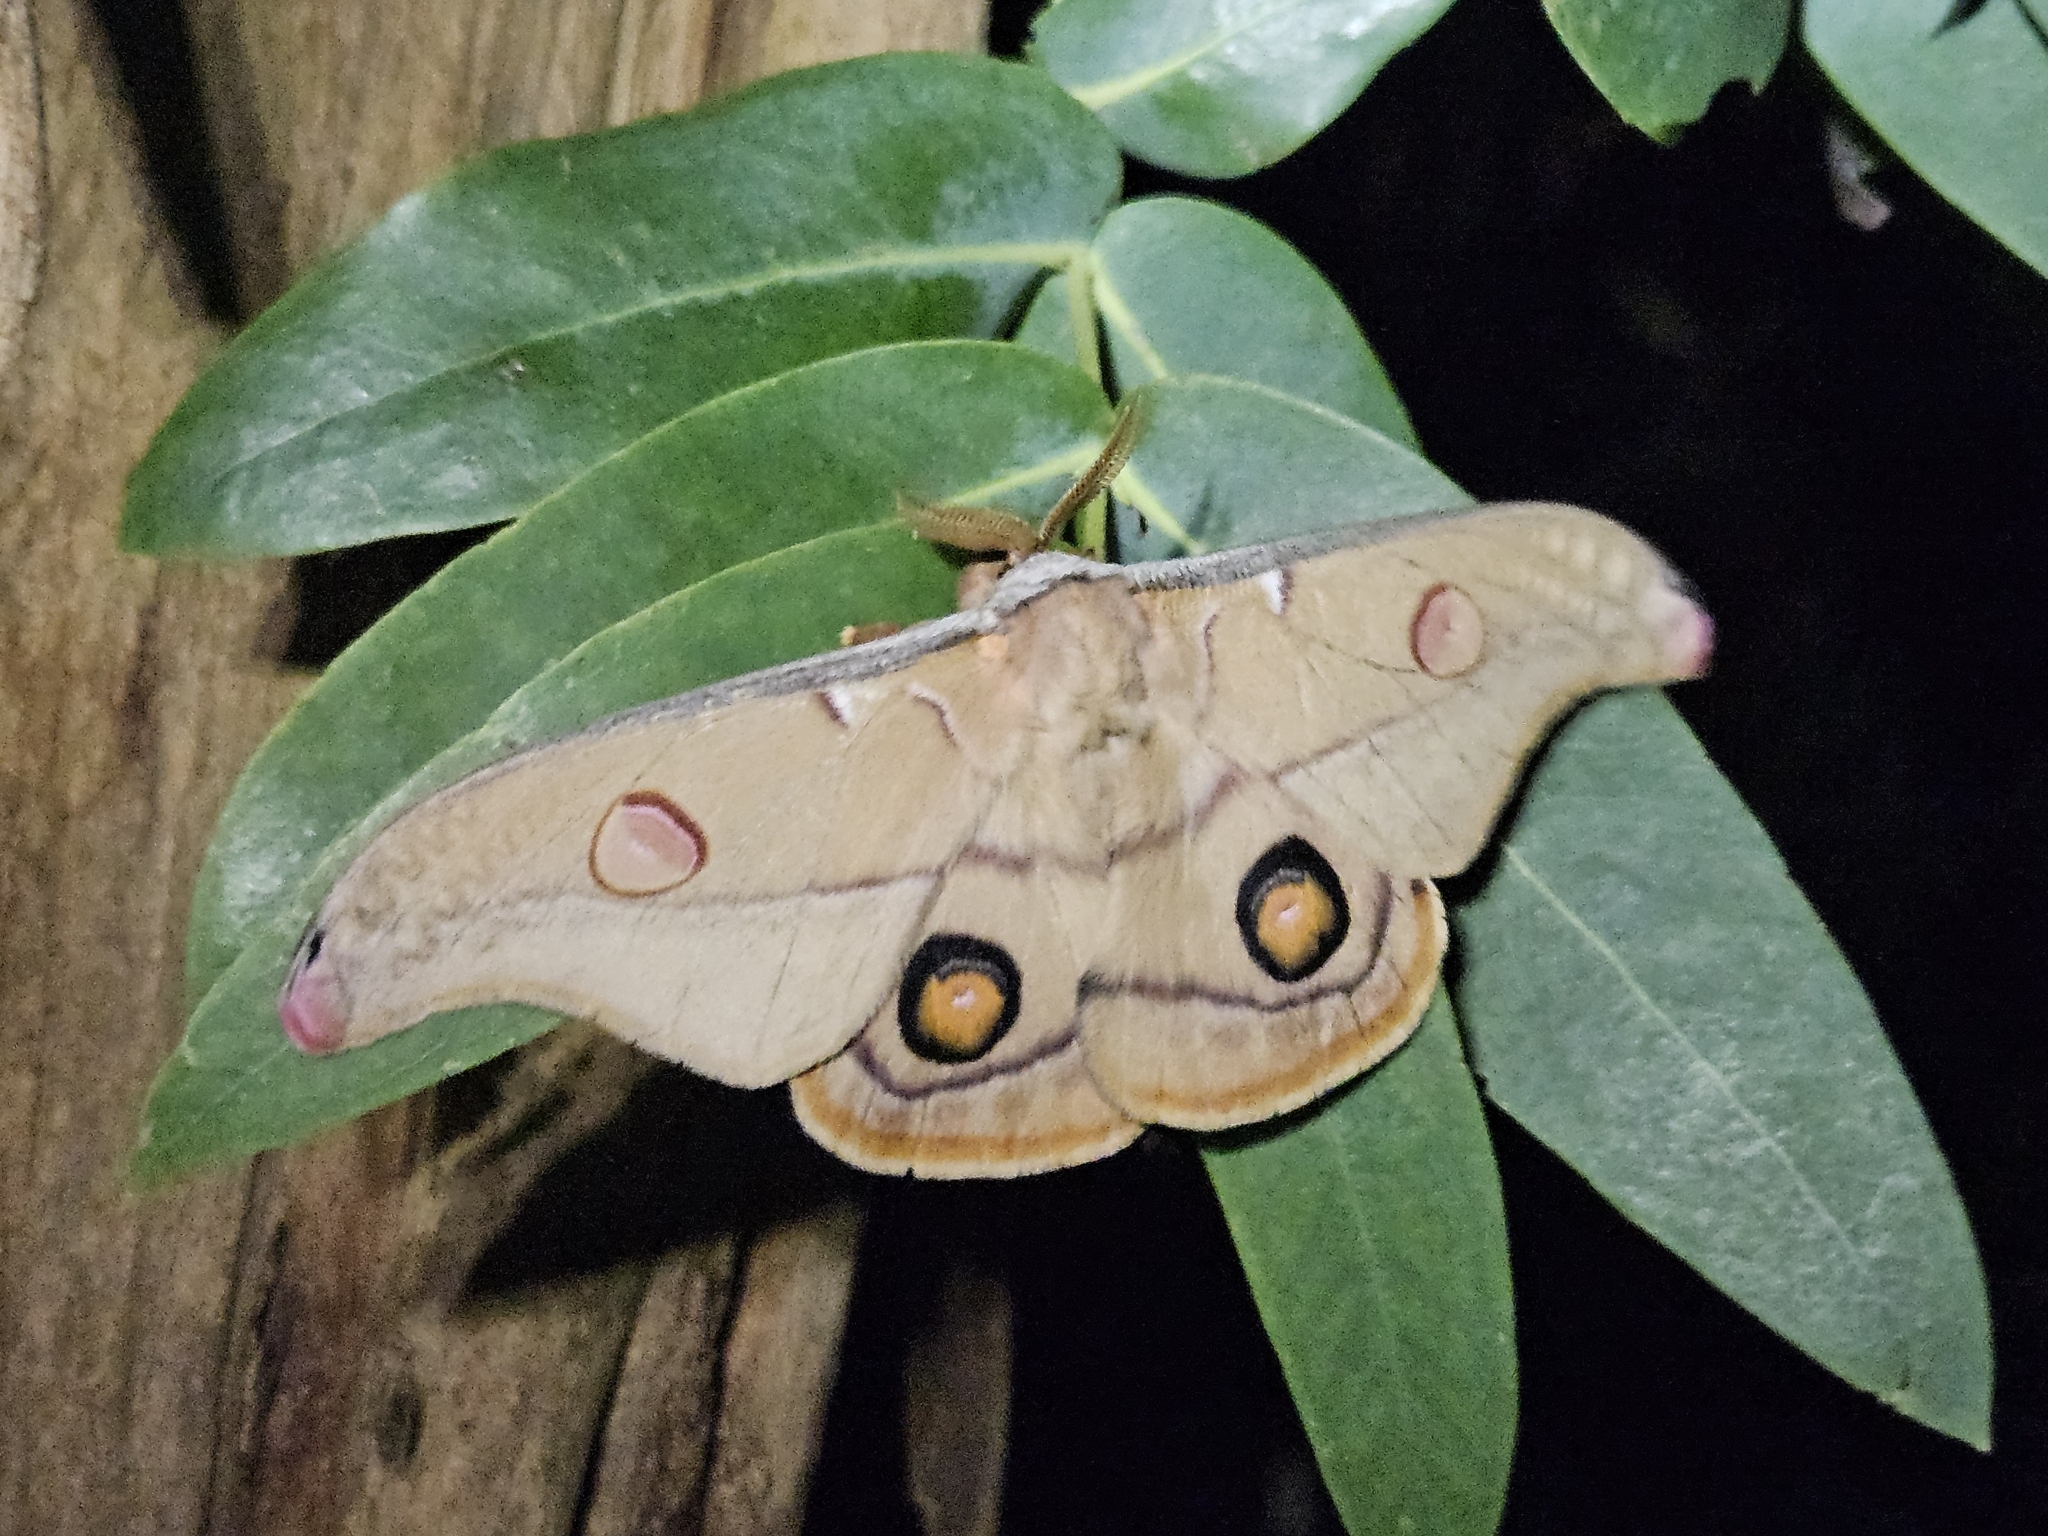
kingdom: Animalia
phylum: Arthropoda
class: Insecta
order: Lepidoptera
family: Saturniidae
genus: Opodiphthera
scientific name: Opodiphthera
